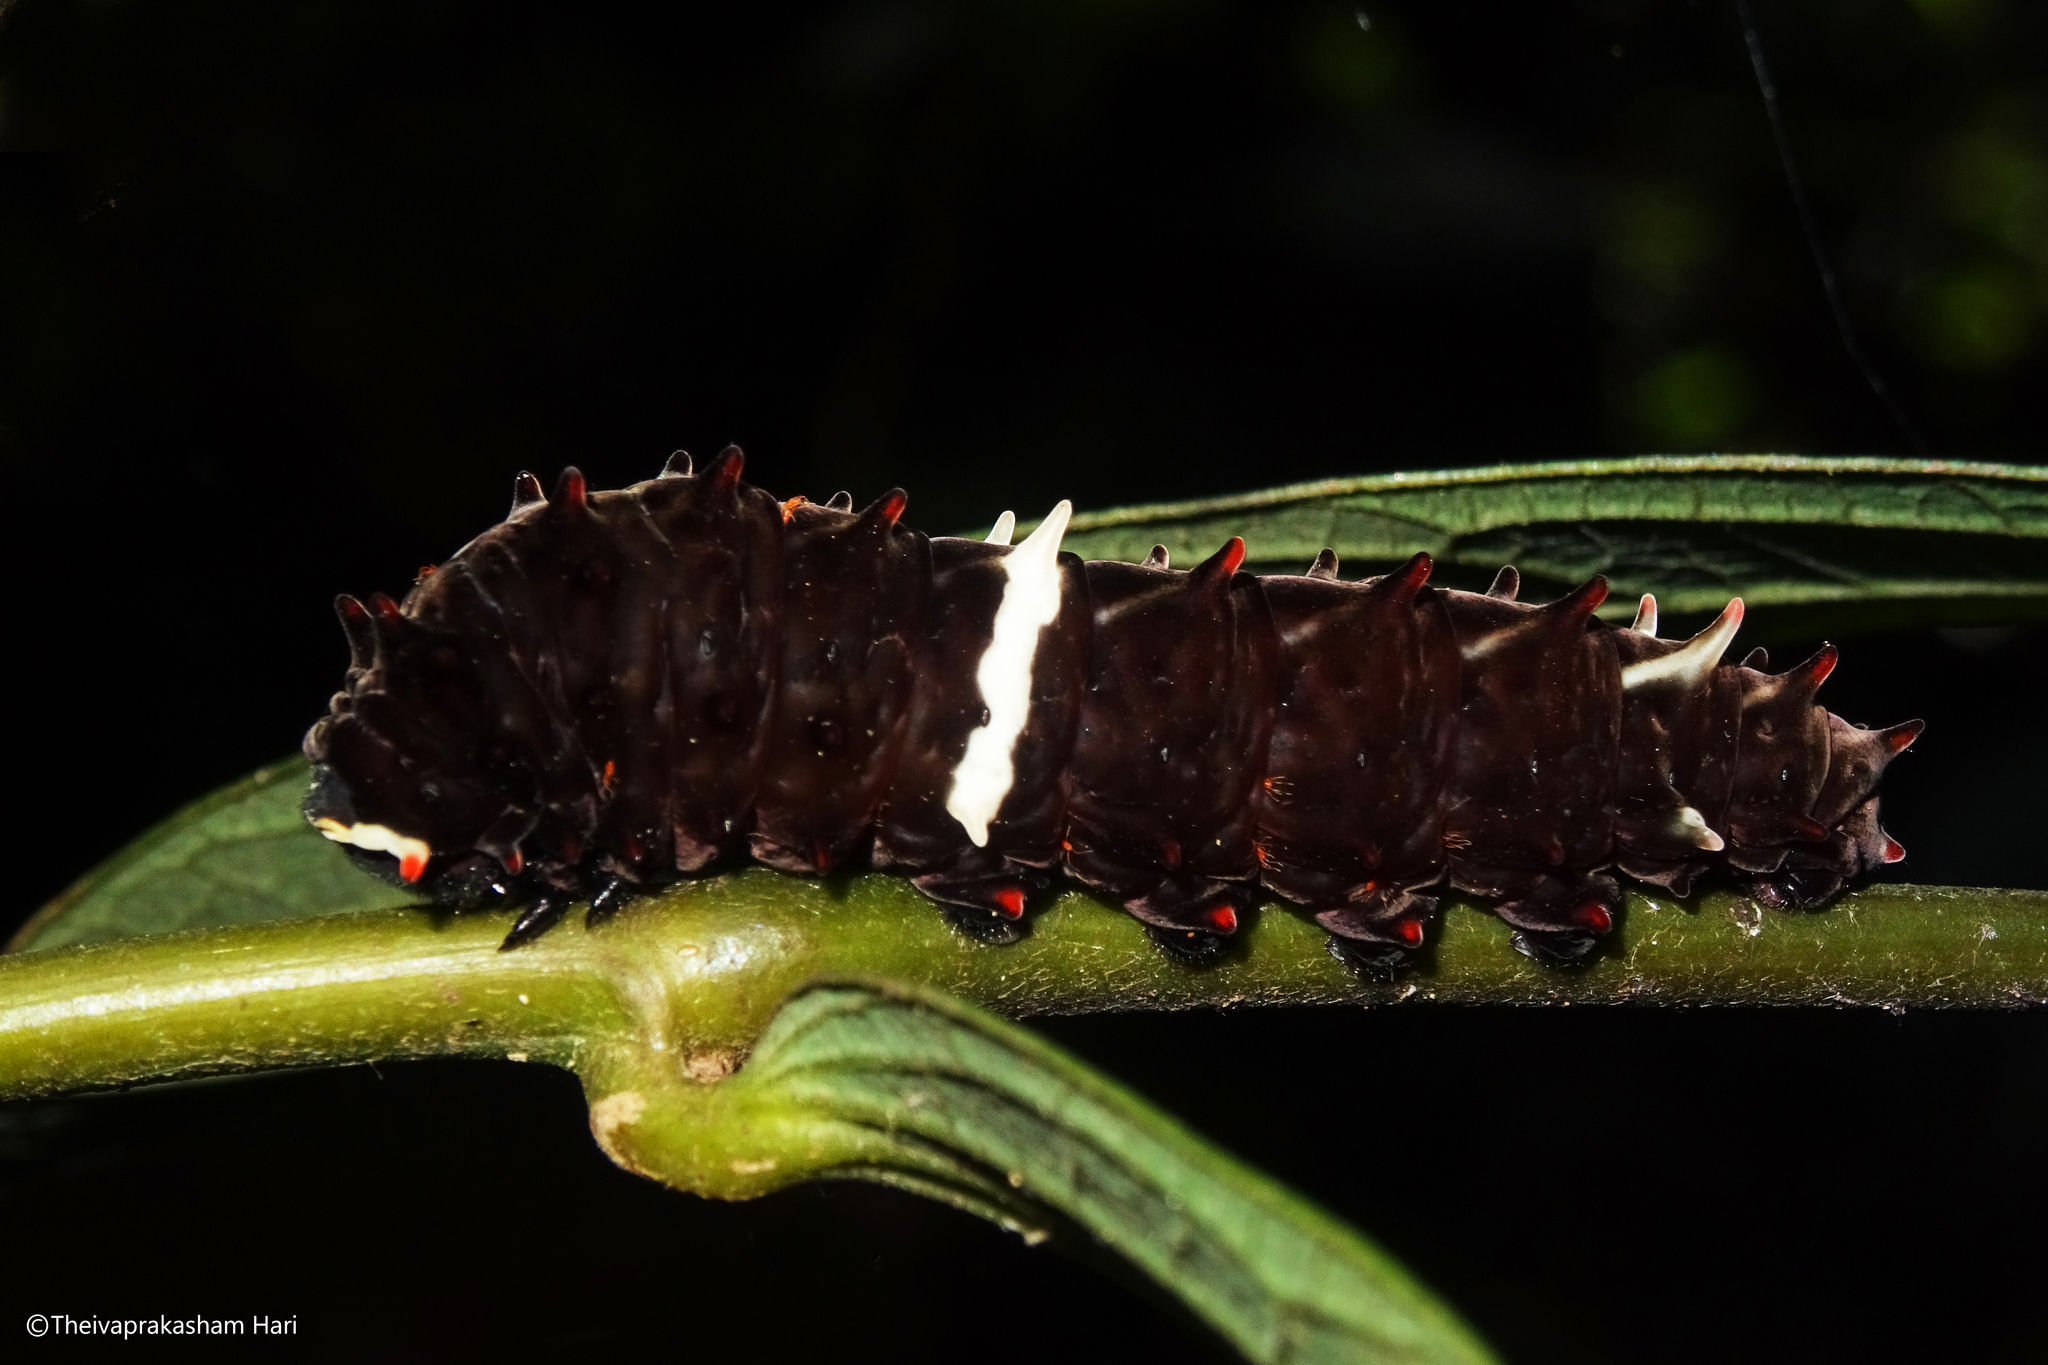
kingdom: Animalia
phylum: Arthropoda
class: Insecta
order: Lepidoptera
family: Papilionidae
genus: Pachliopta
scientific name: Pachliopta pandiyana
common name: Malabar rose
